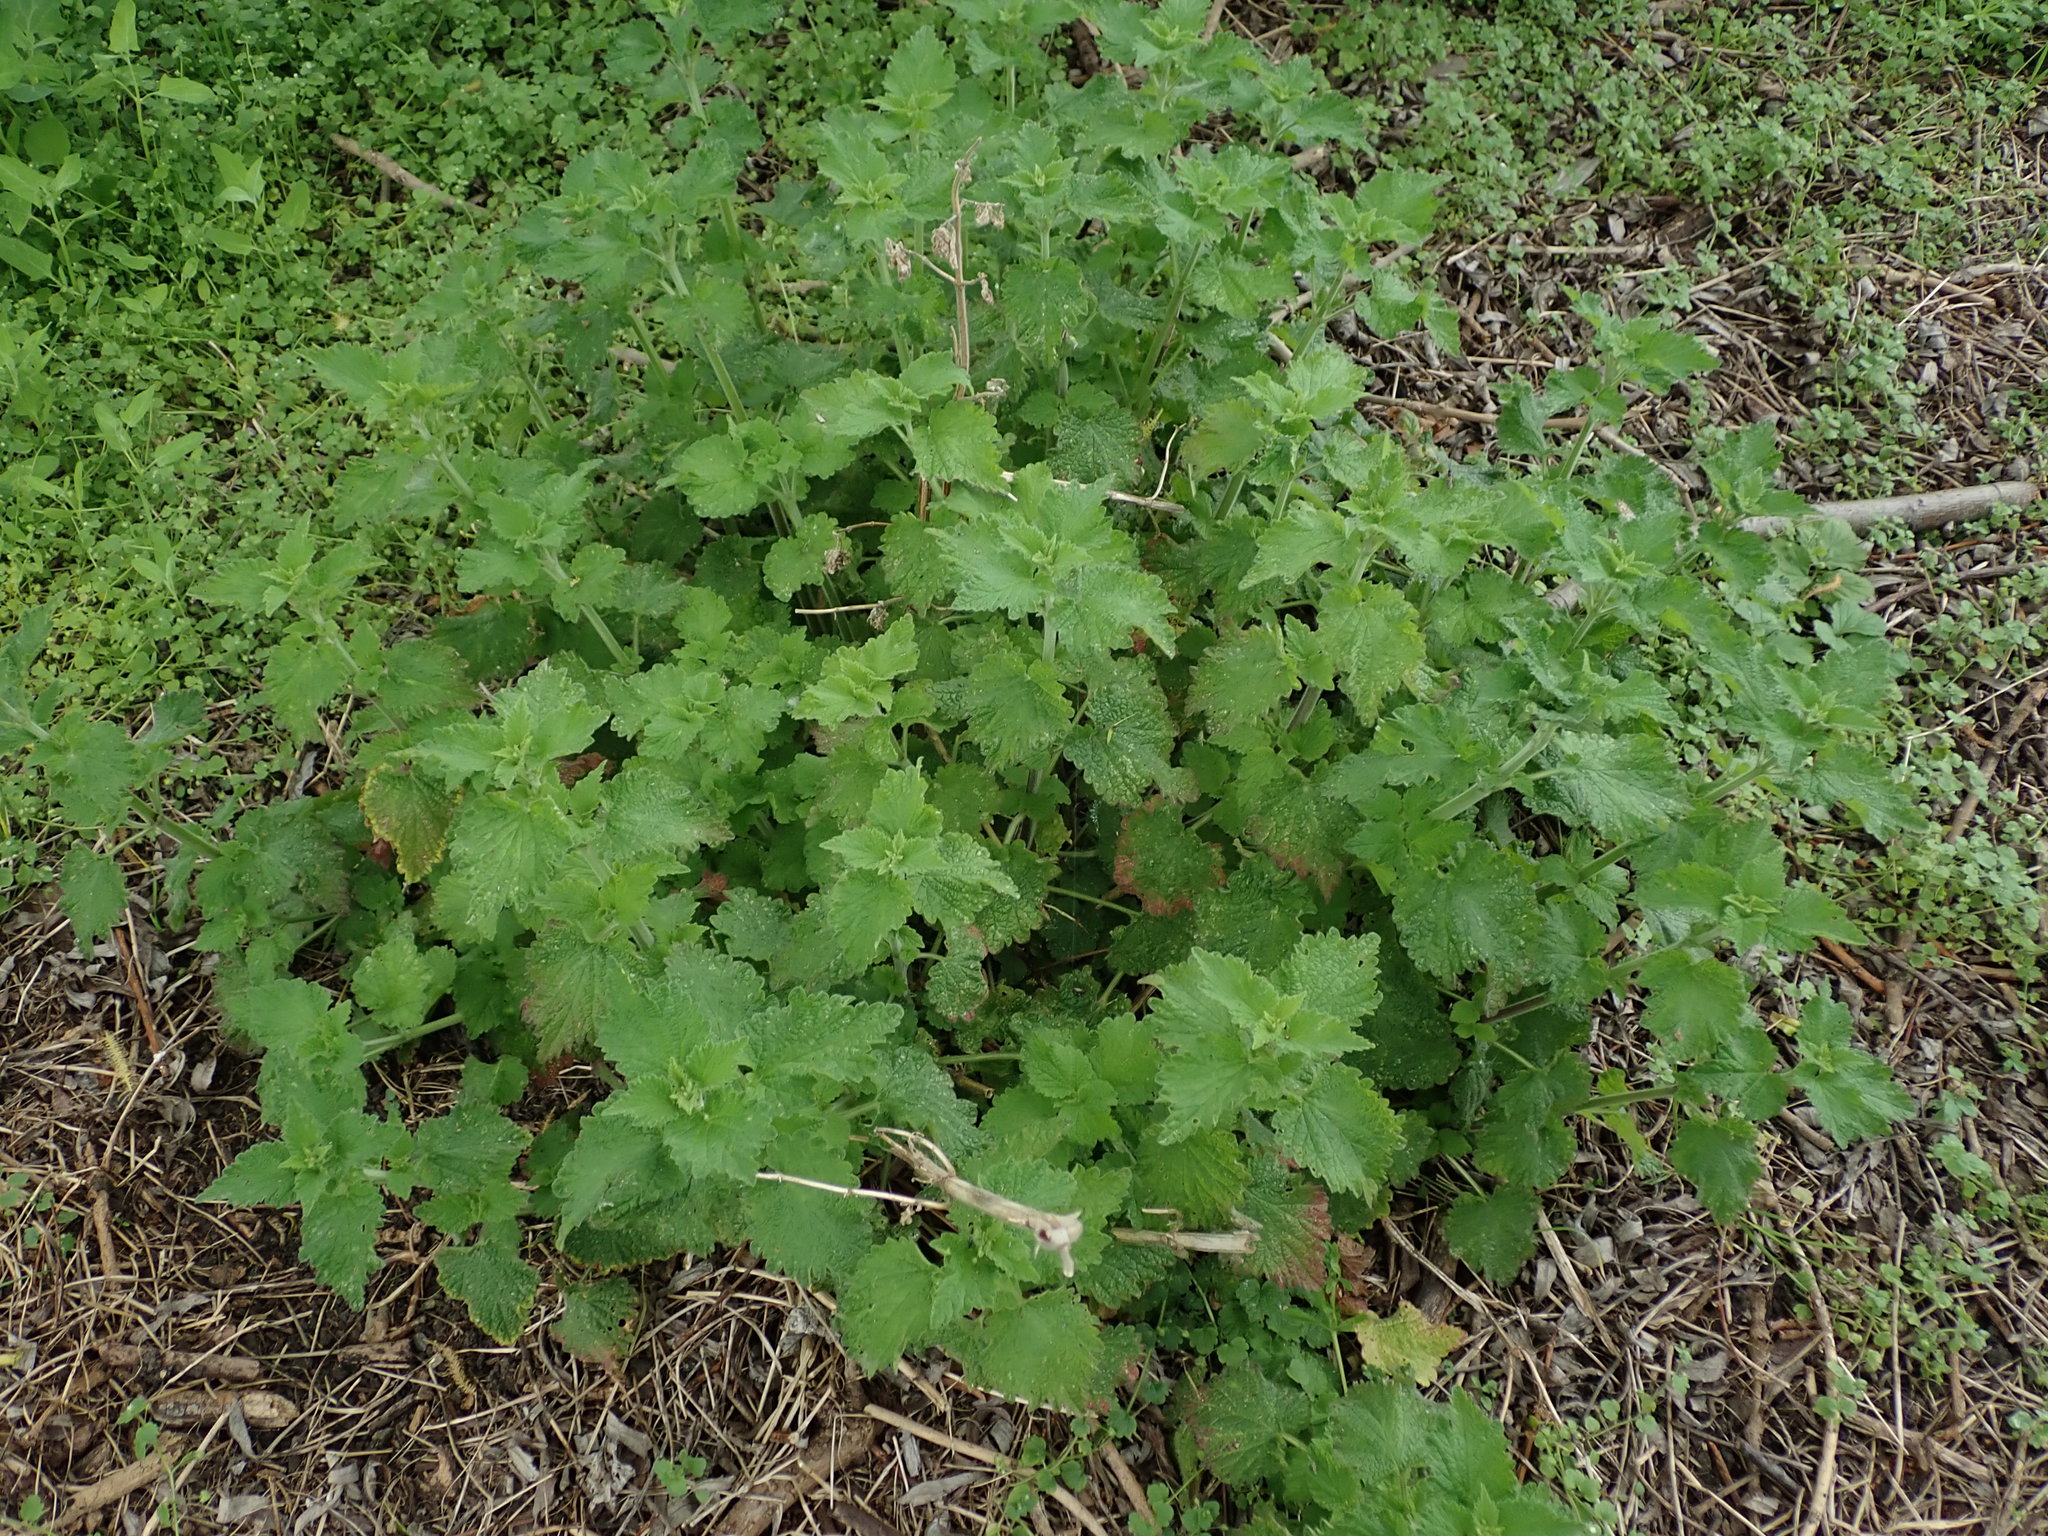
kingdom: Plantae
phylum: Tracheophyta
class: Magnoliopsida
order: Lamiales
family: Lamiaceae
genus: Ballota
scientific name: Ballota nigra
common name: Black horehound
